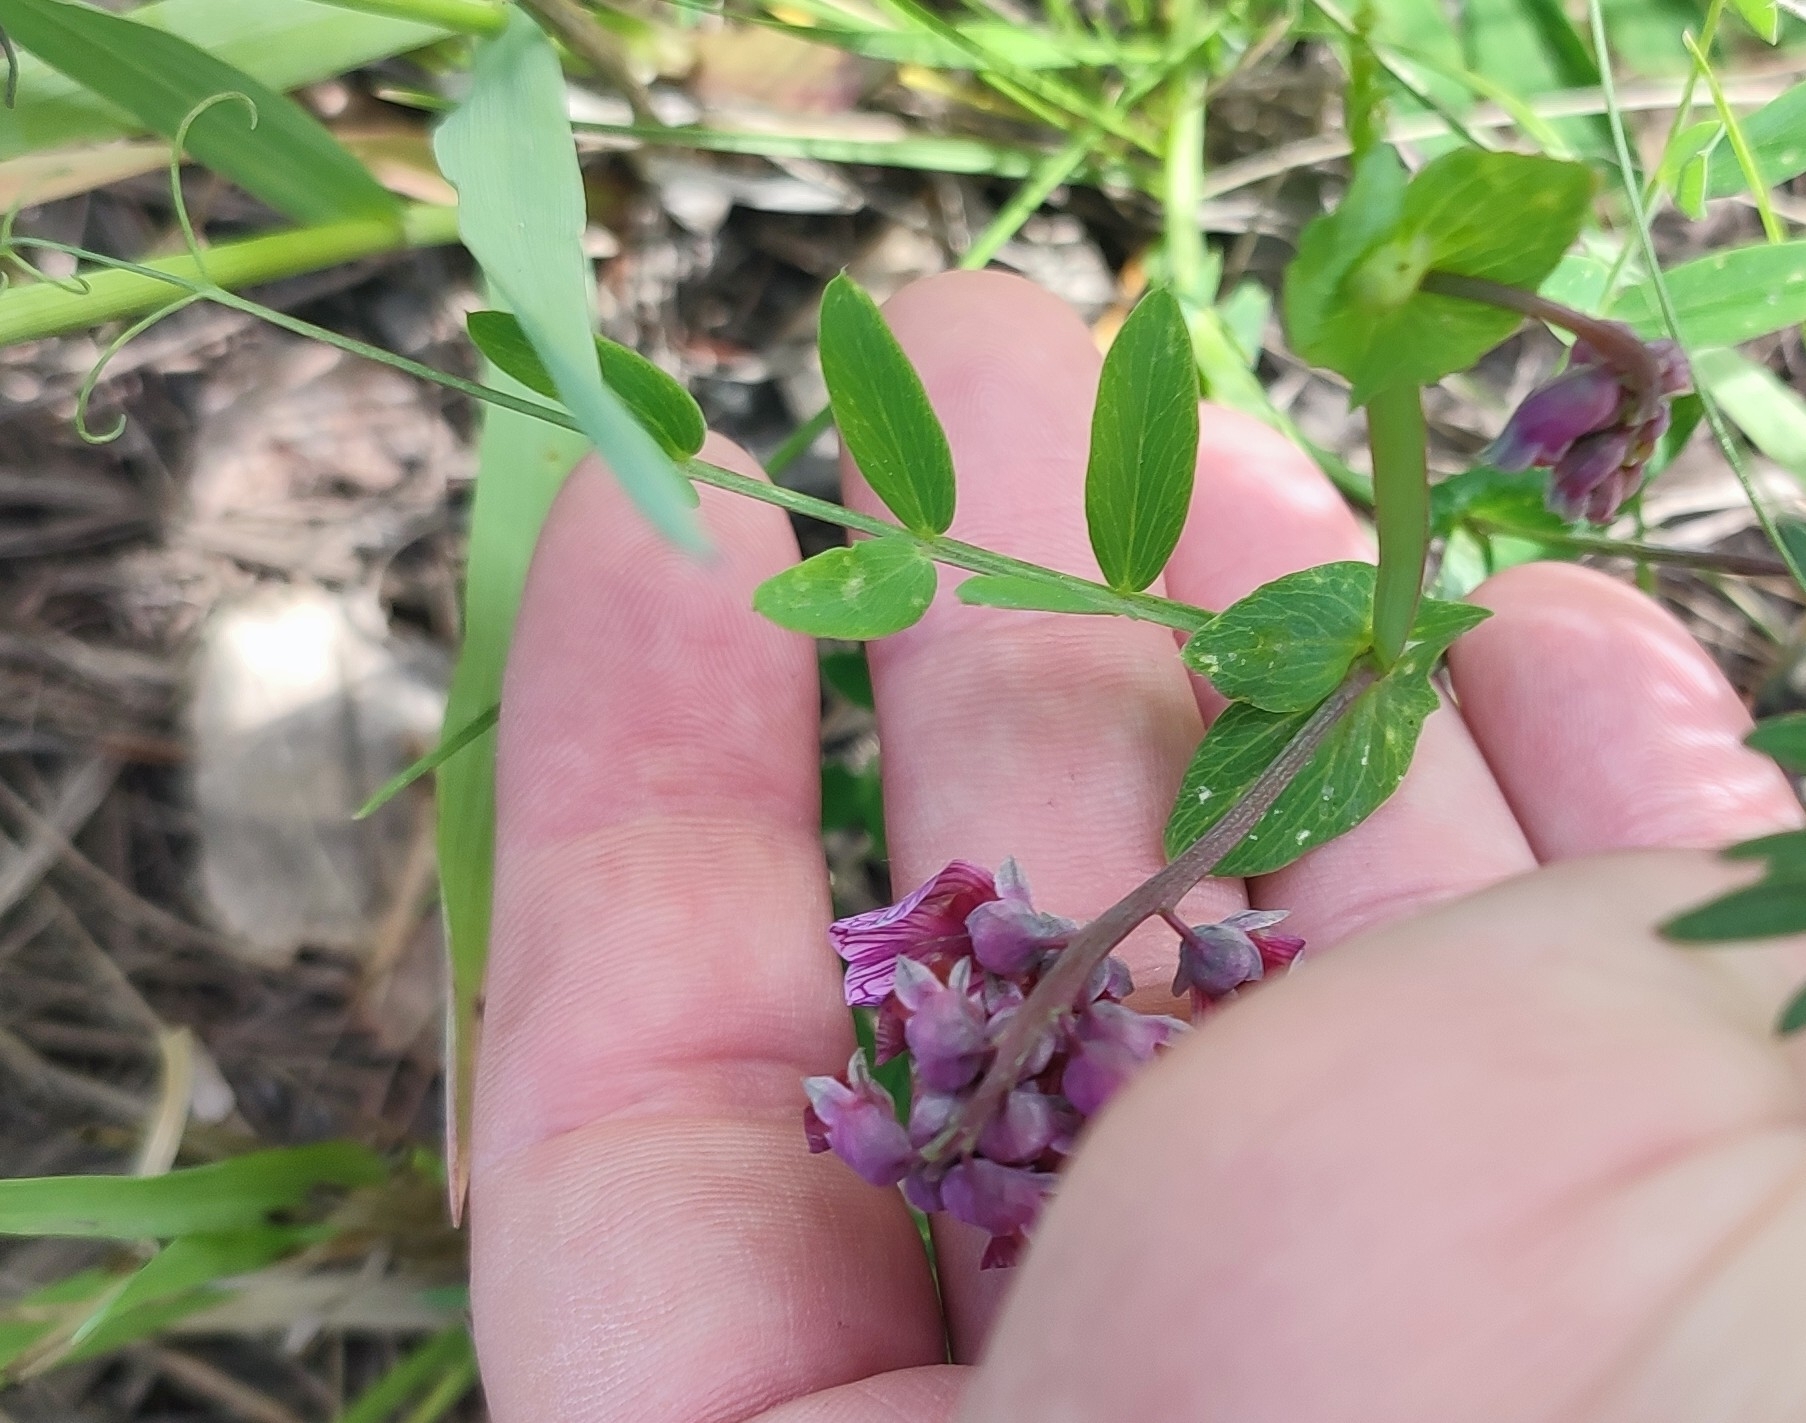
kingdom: Plantae
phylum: Tracheophyta
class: Magnoliopsida
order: Fabales
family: Fabaceae
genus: Lathyrus
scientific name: Lathyrus pisiformis
